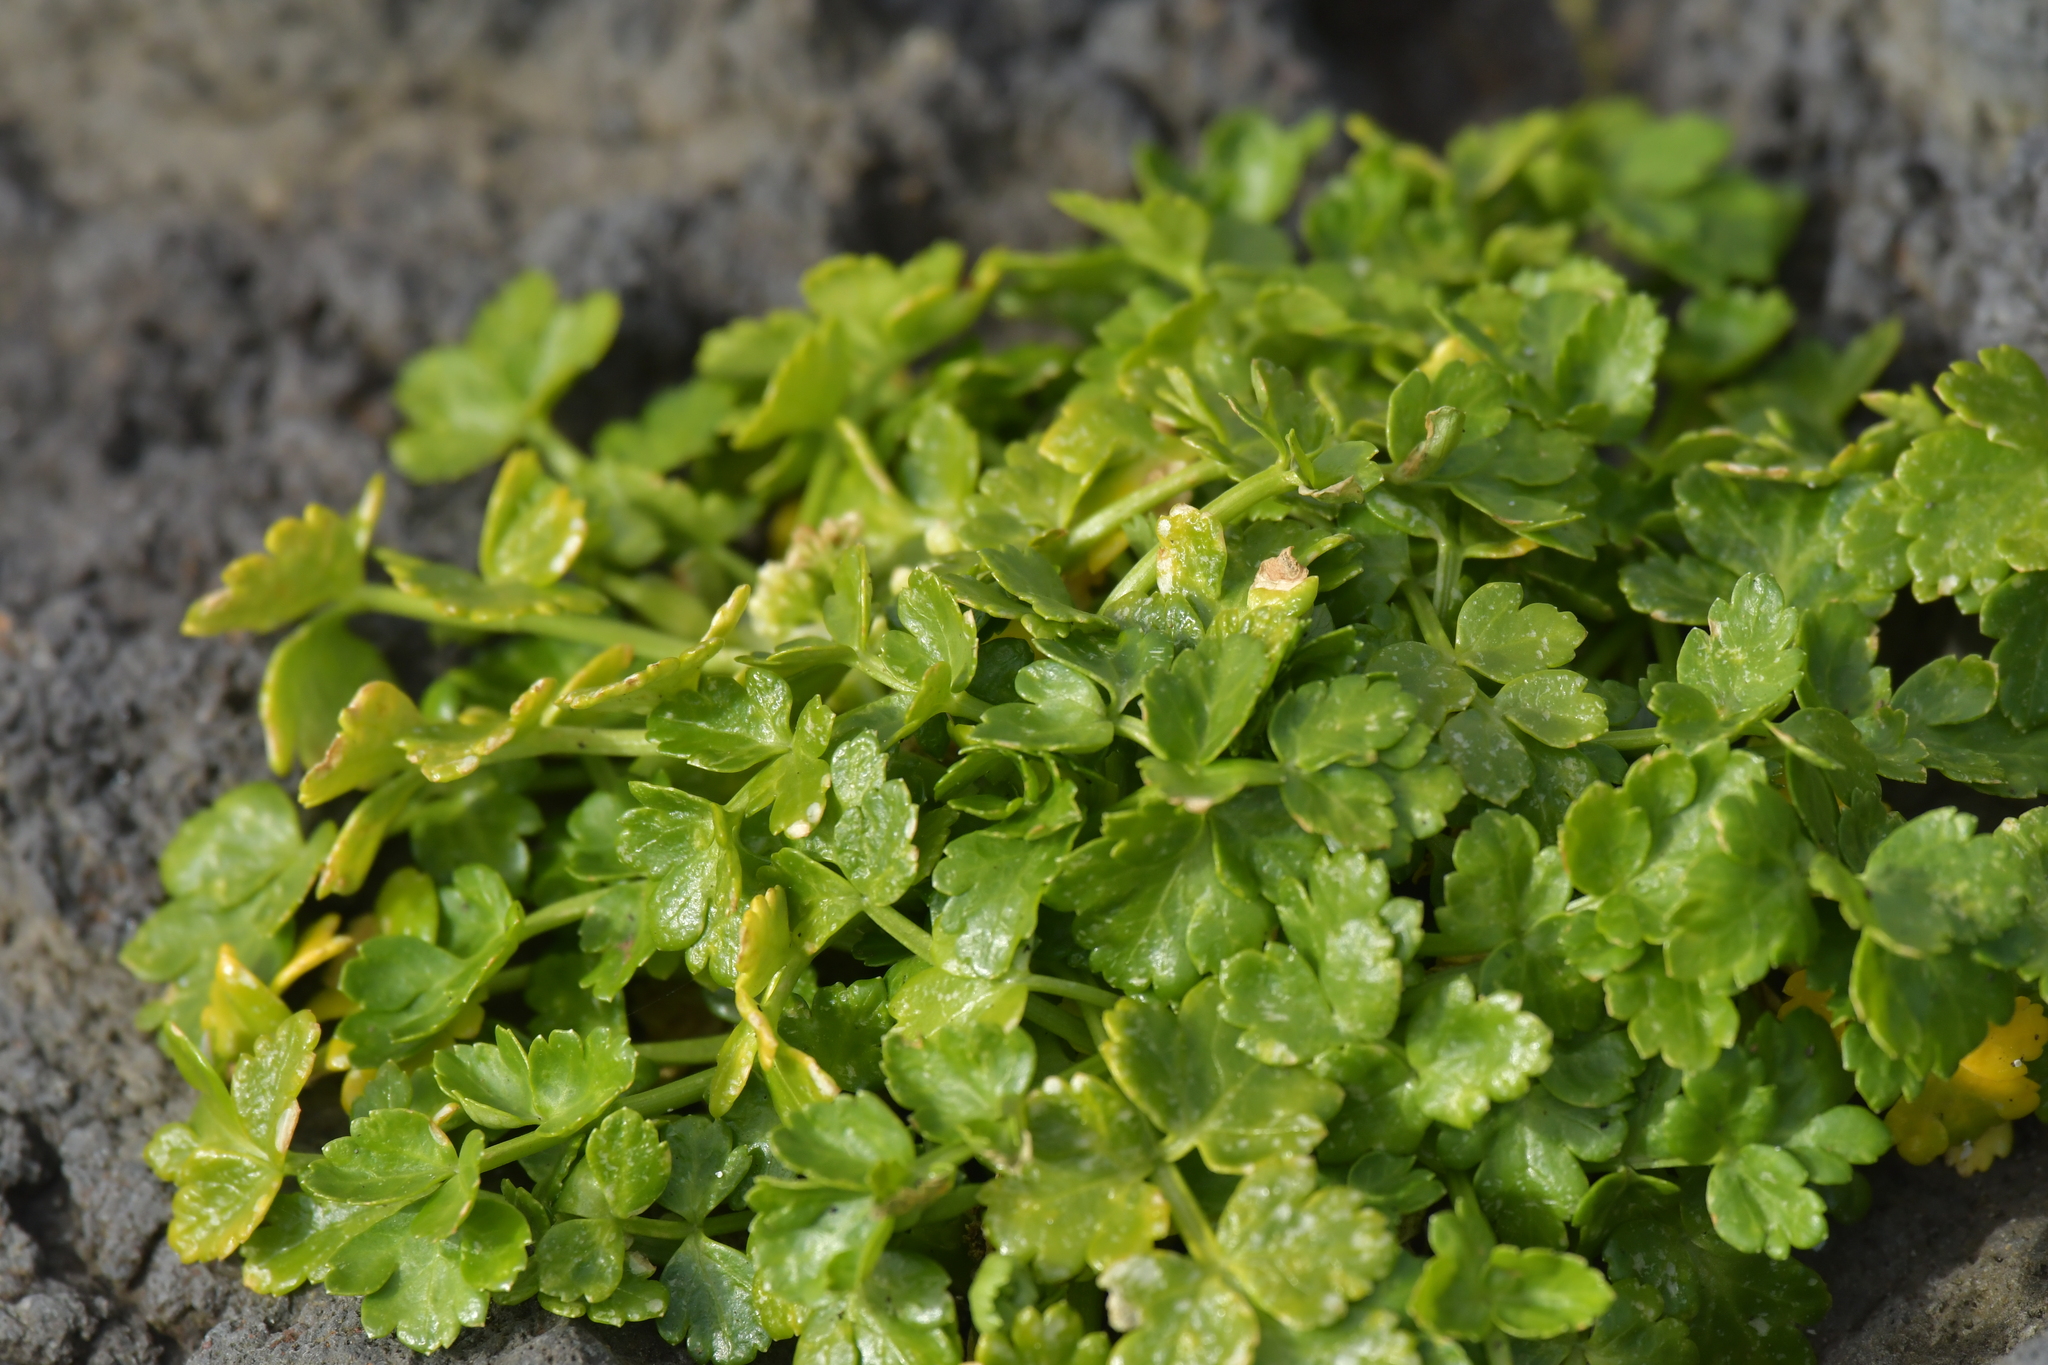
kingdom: Plantae
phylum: Tracheophyta
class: Magnoliopsida
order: Apiales
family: Apiaceae
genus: Apium
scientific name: Apium prostratum
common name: Prostrate marshwort
